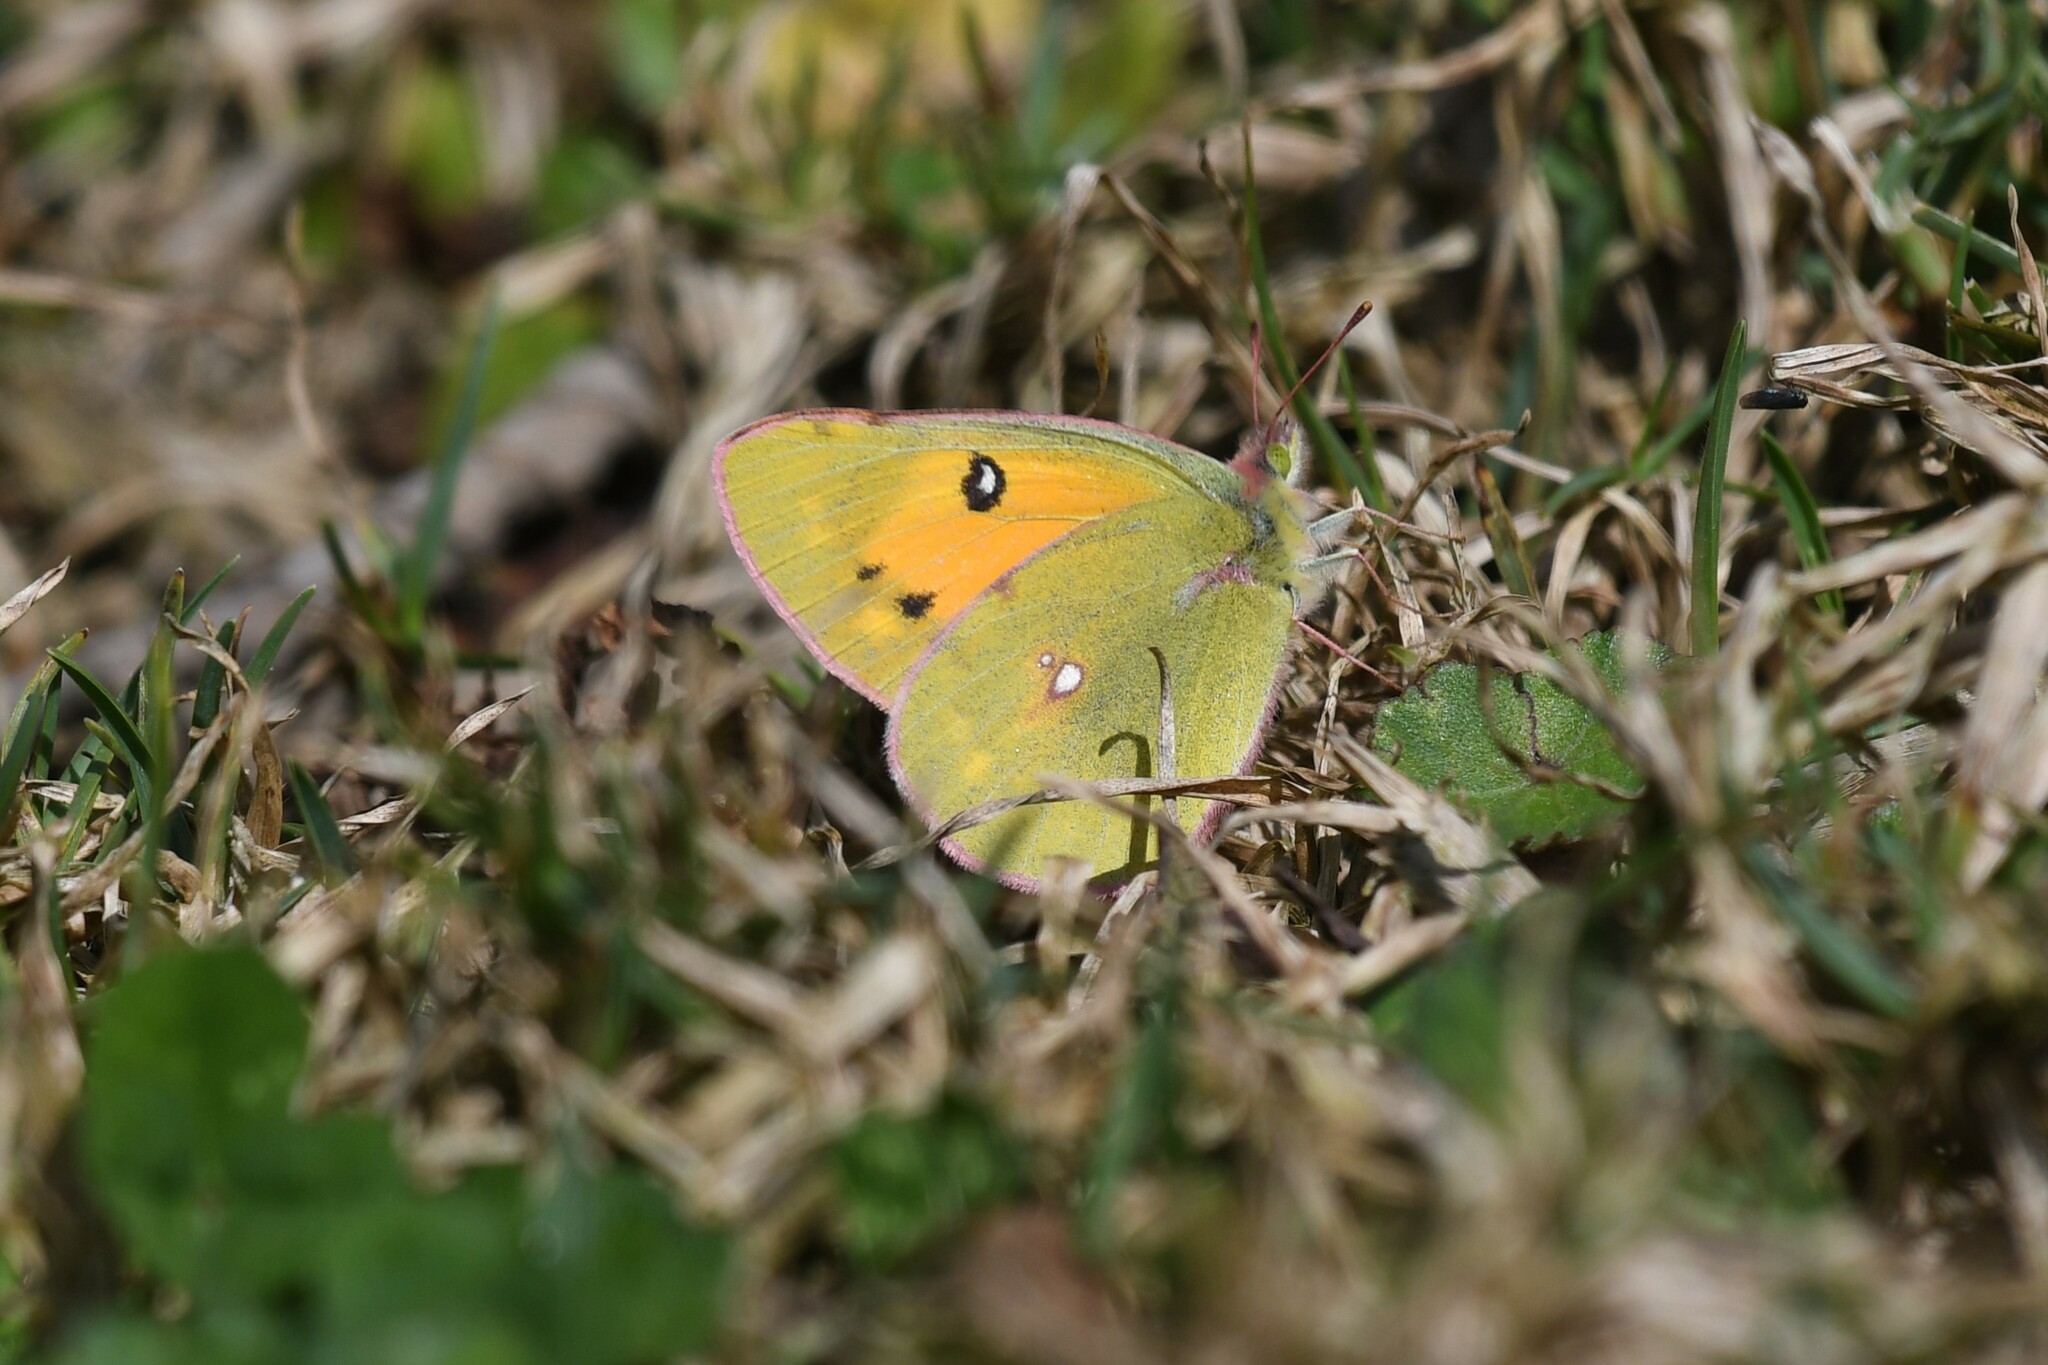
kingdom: Animalia
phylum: Arthropoda
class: Insecta
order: Lepidoptera
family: Pieridae
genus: Colias
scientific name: Colias fieldii
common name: Dark clouded yellow
